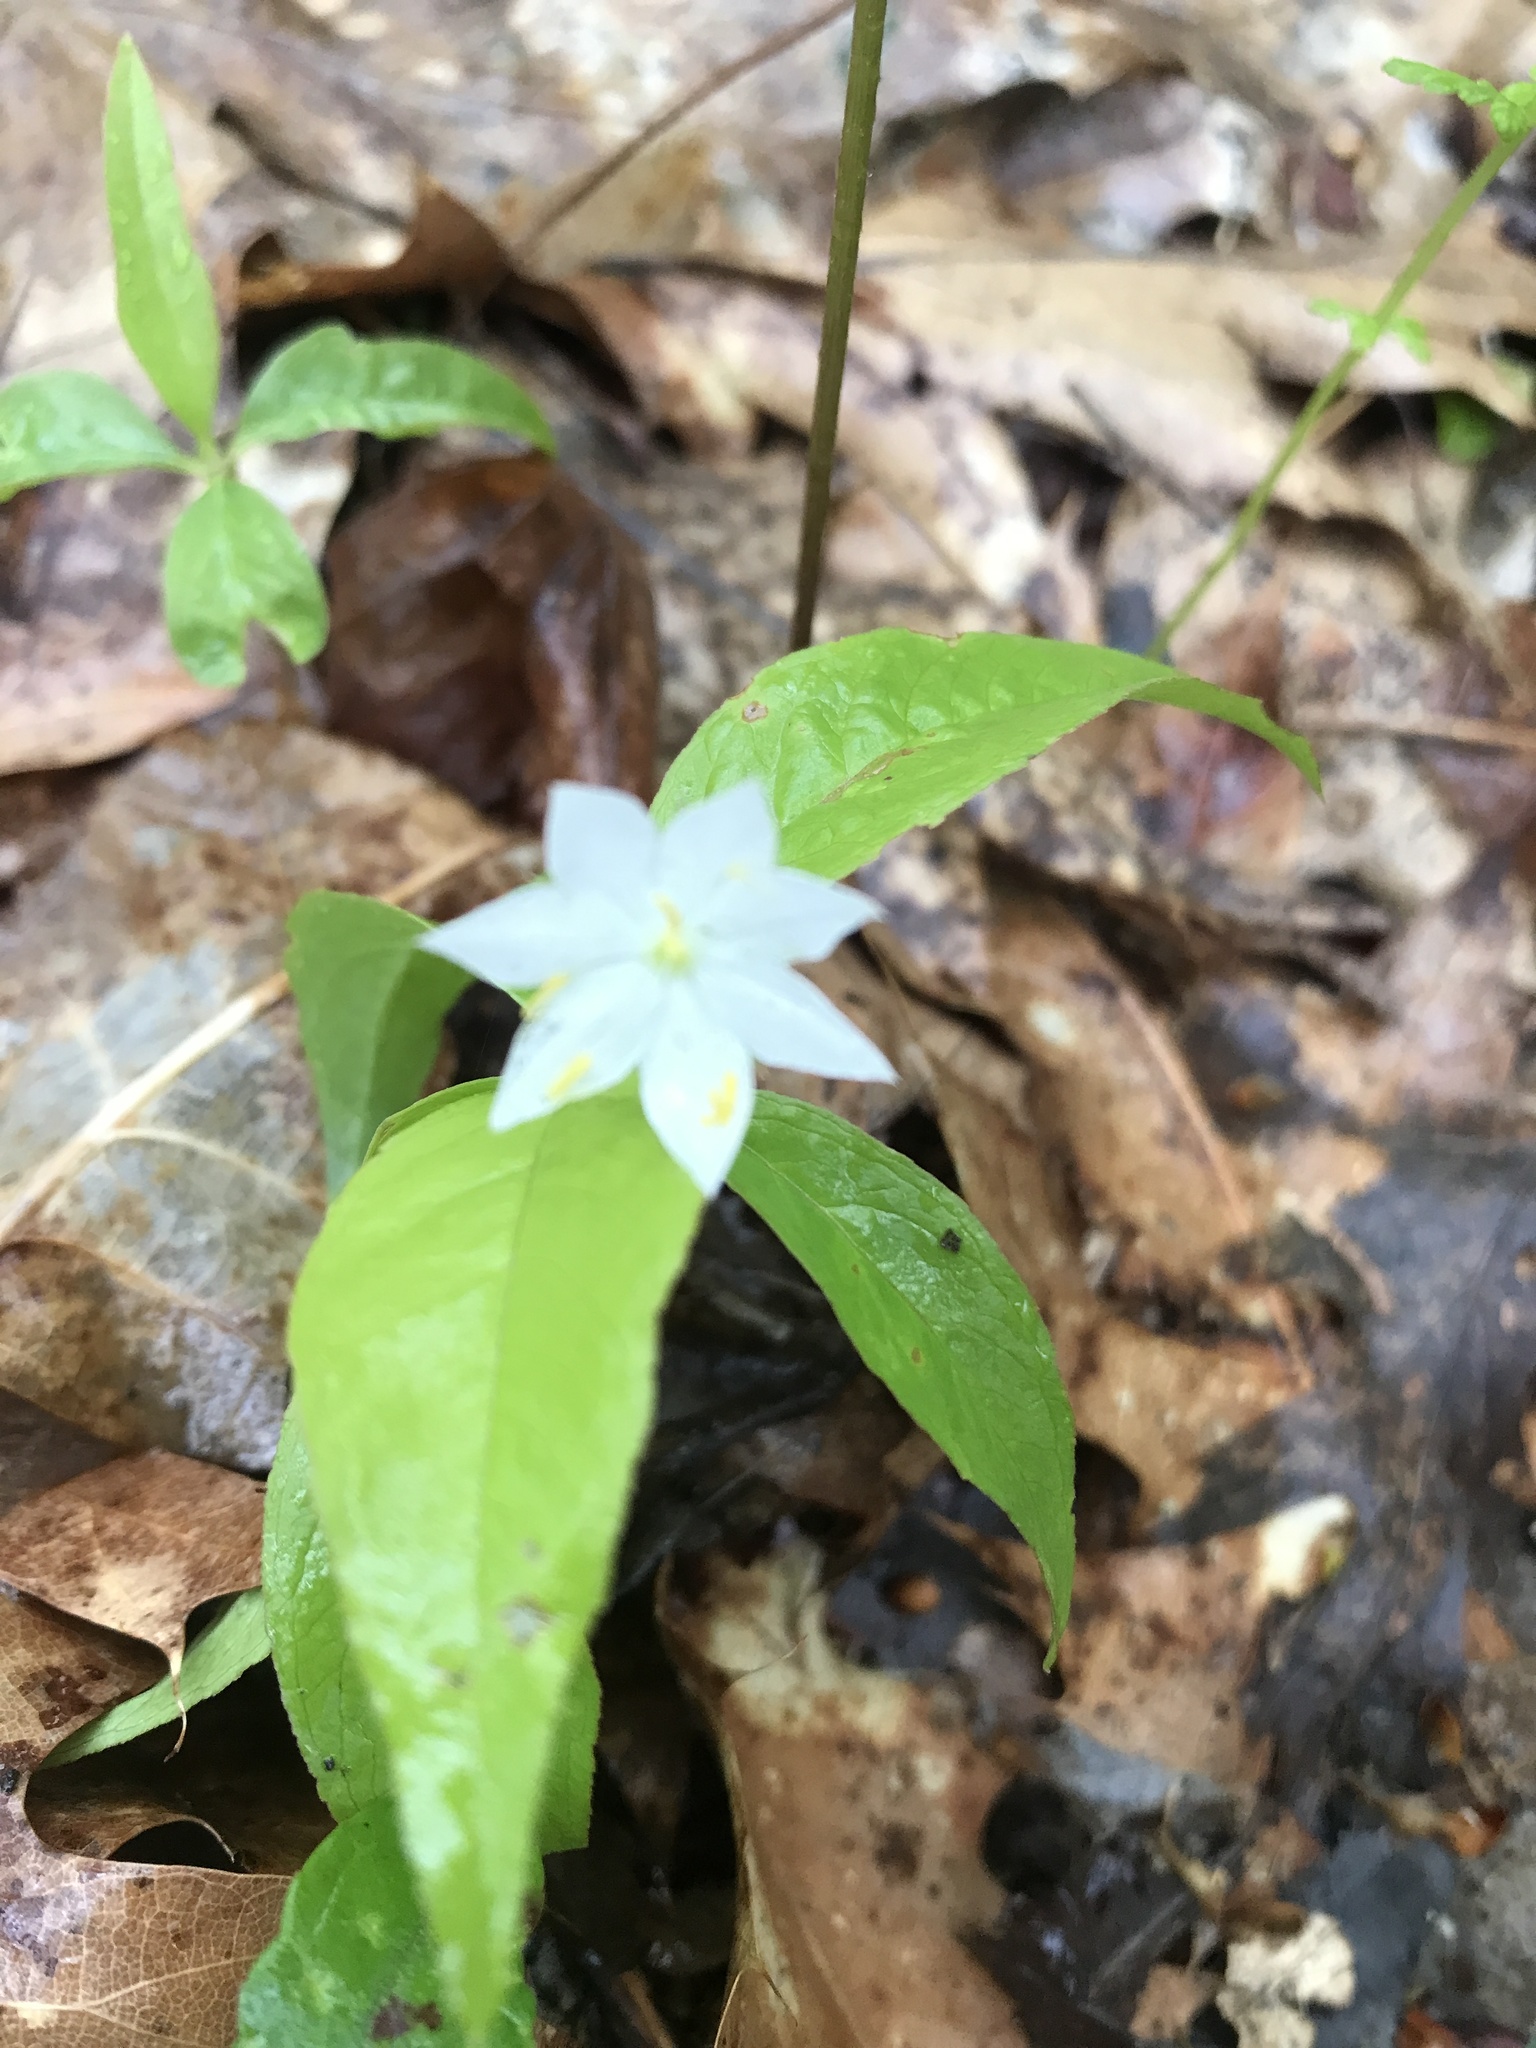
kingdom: Plantae
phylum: Tracheophyta
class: Magnoliopsida
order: Ericales
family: Primulaceae
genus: Lysimachia
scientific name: Lysimachia borealis
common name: American starflower
